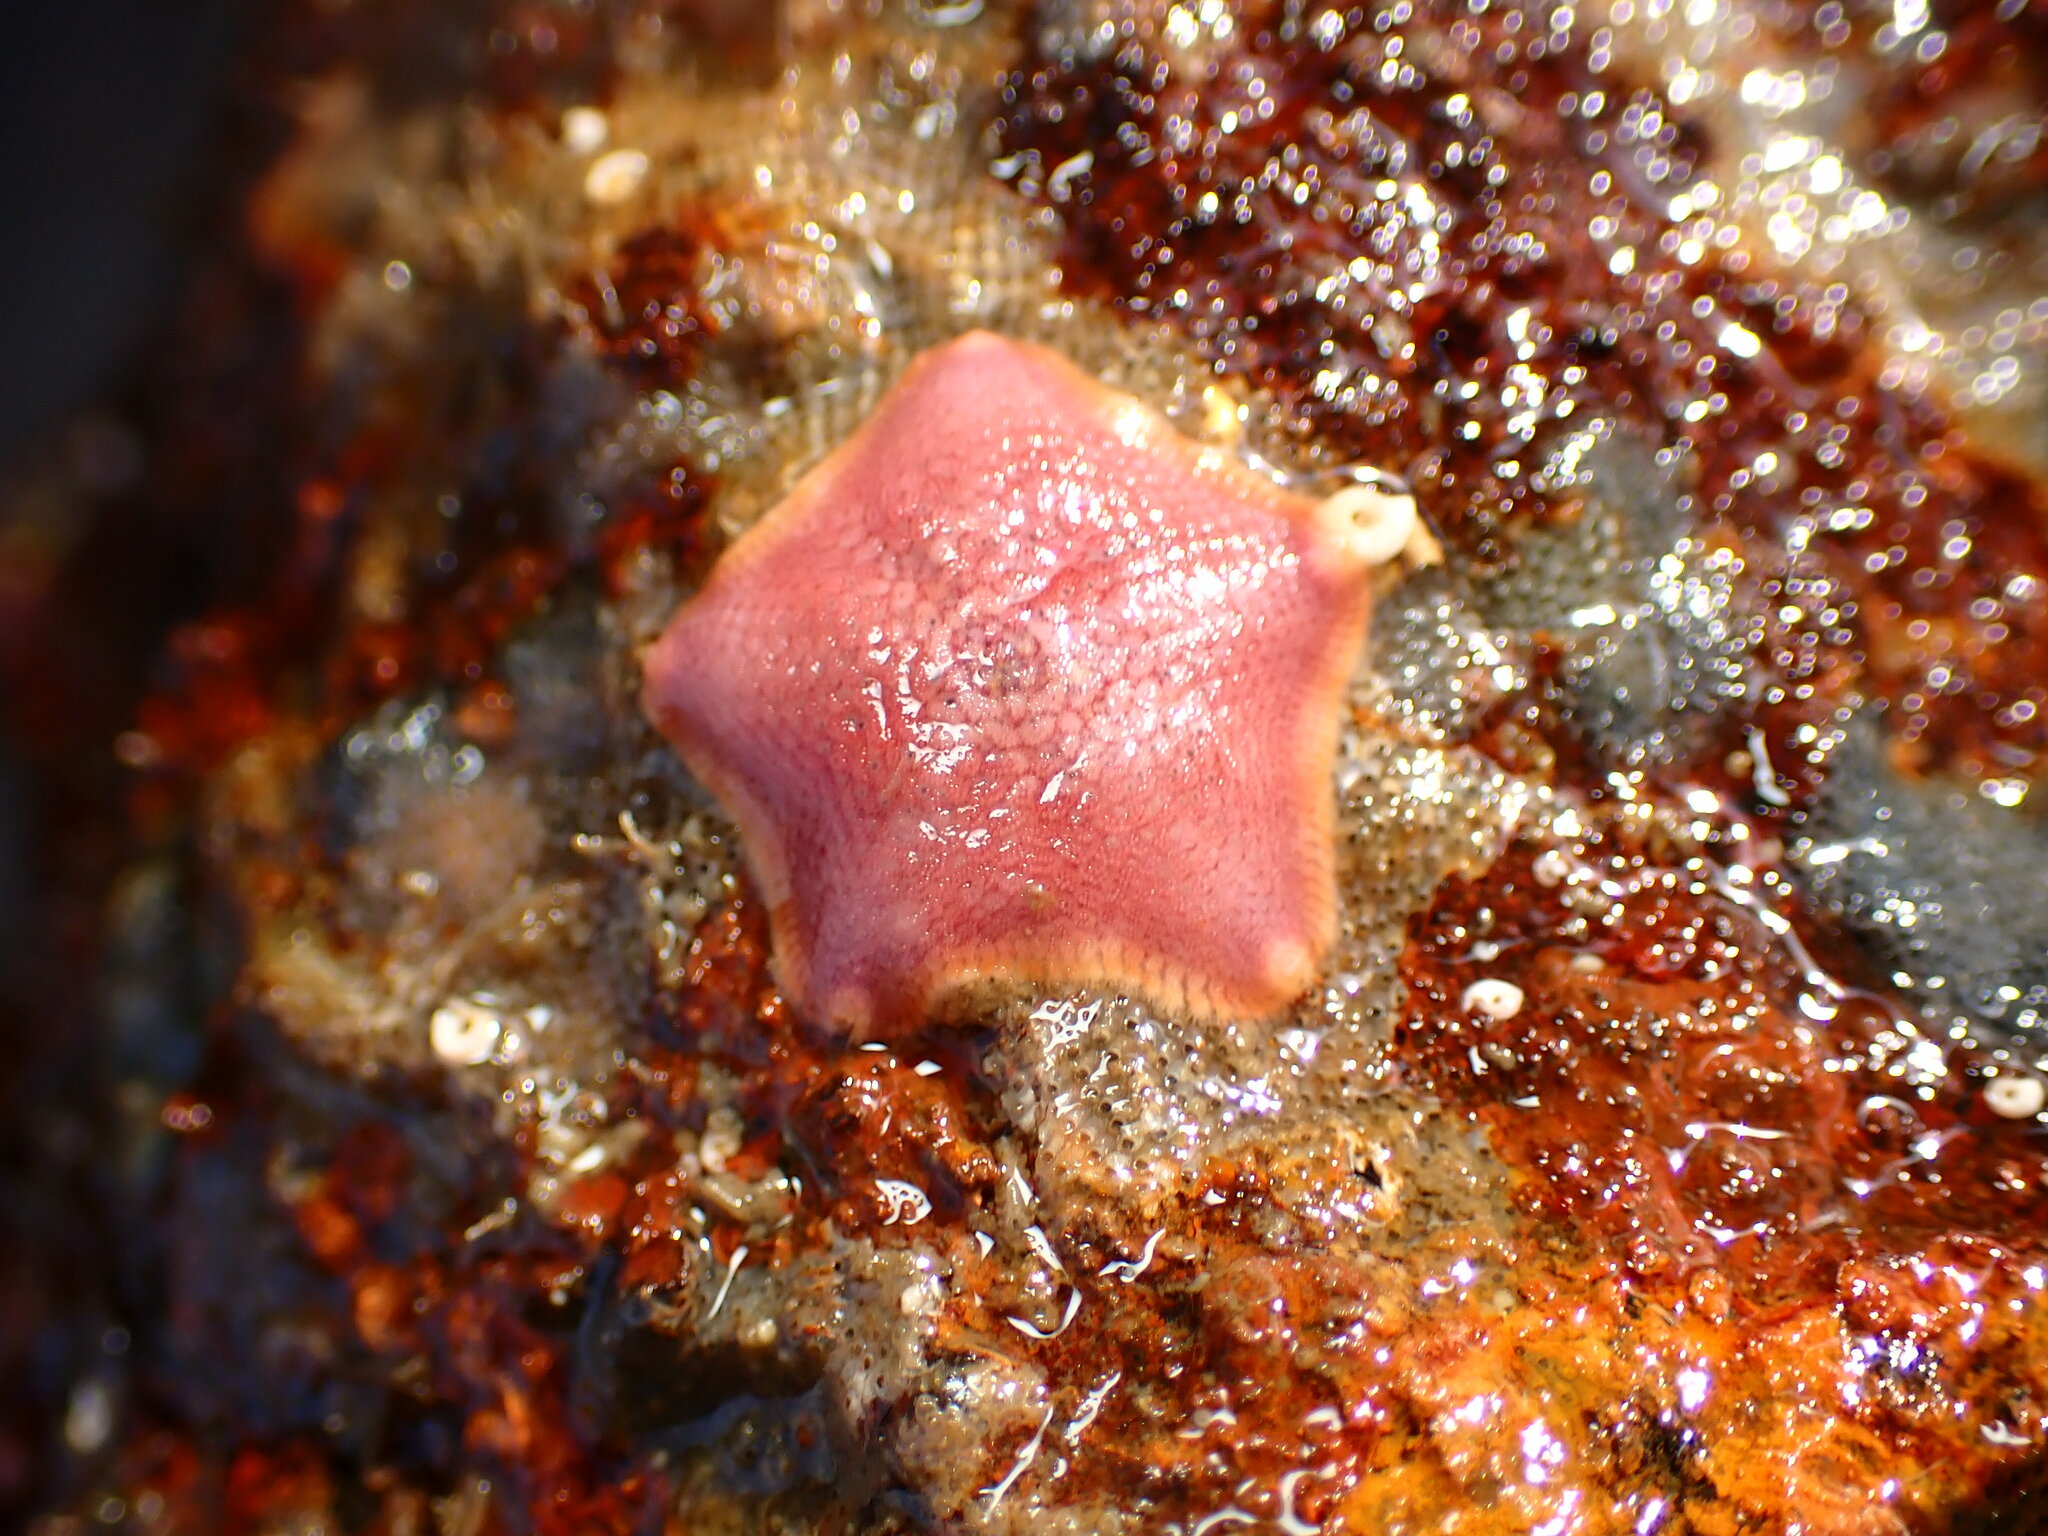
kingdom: Animalia
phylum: Echinodermata
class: Asteroidea
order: Valvatida
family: Asterinidae
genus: Patiria
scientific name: Patiria miniata
